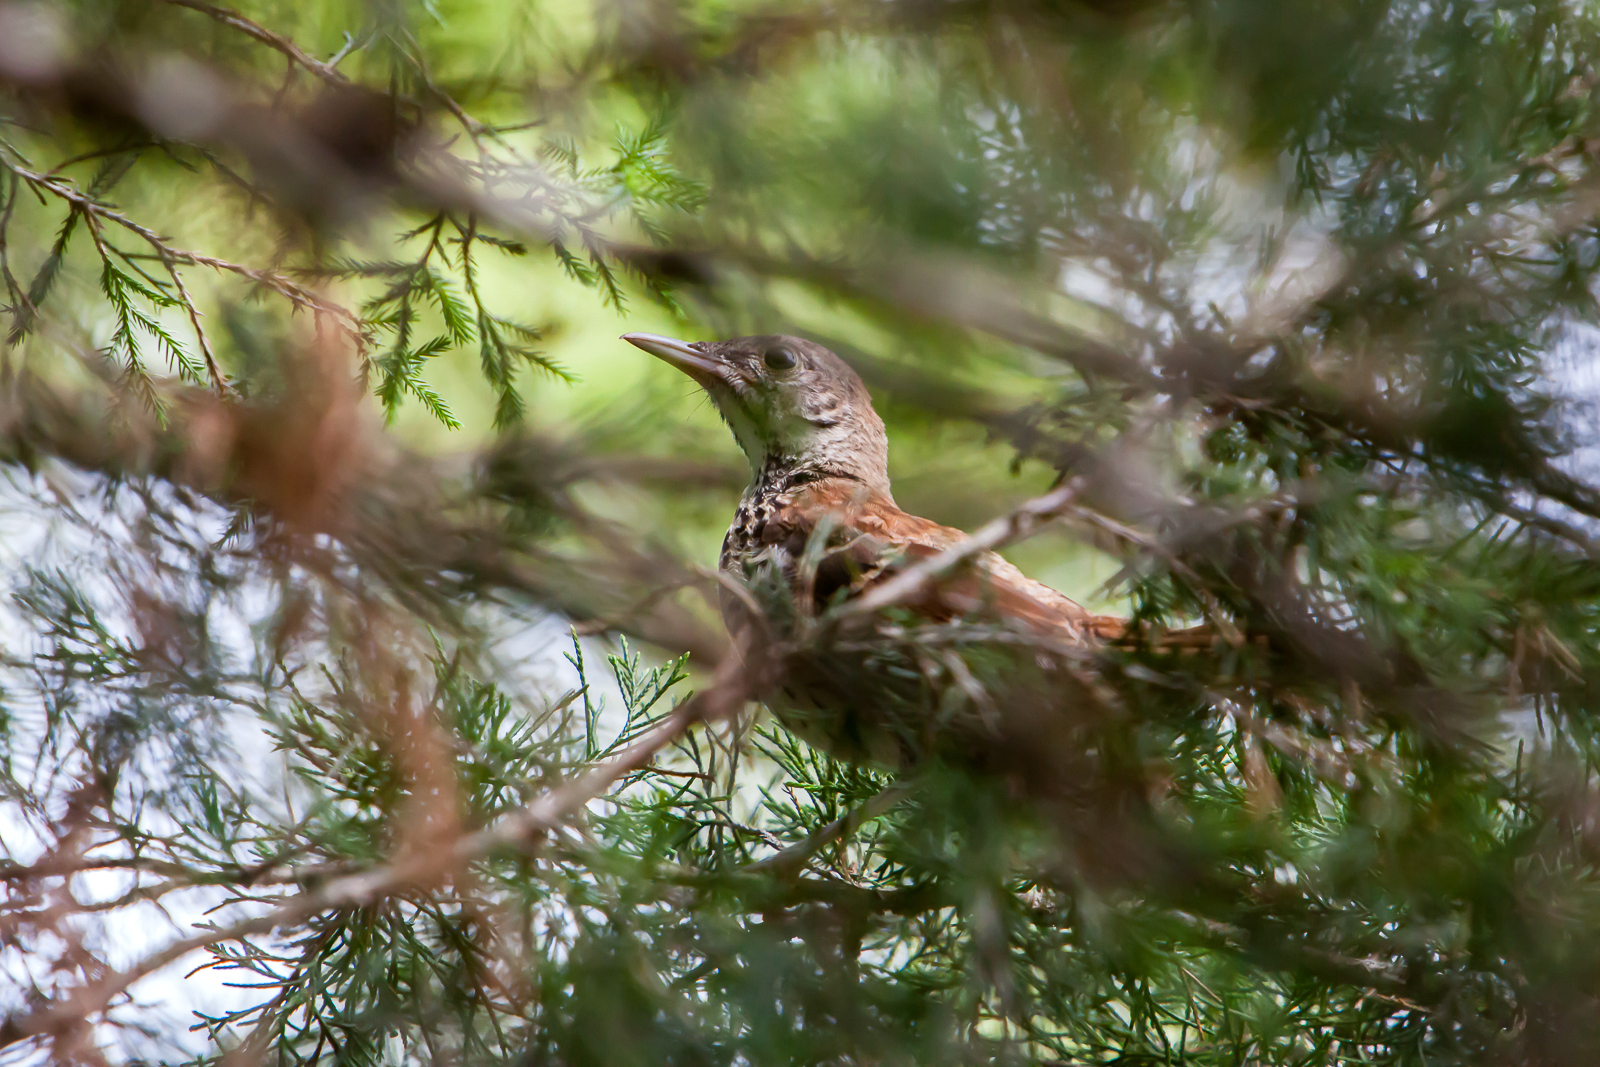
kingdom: Animalia
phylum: Chordata
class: Aves
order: Passeriformes
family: Mimidae
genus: Toxostoma
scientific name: Toxostoma rufum
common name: Brown thrasher
